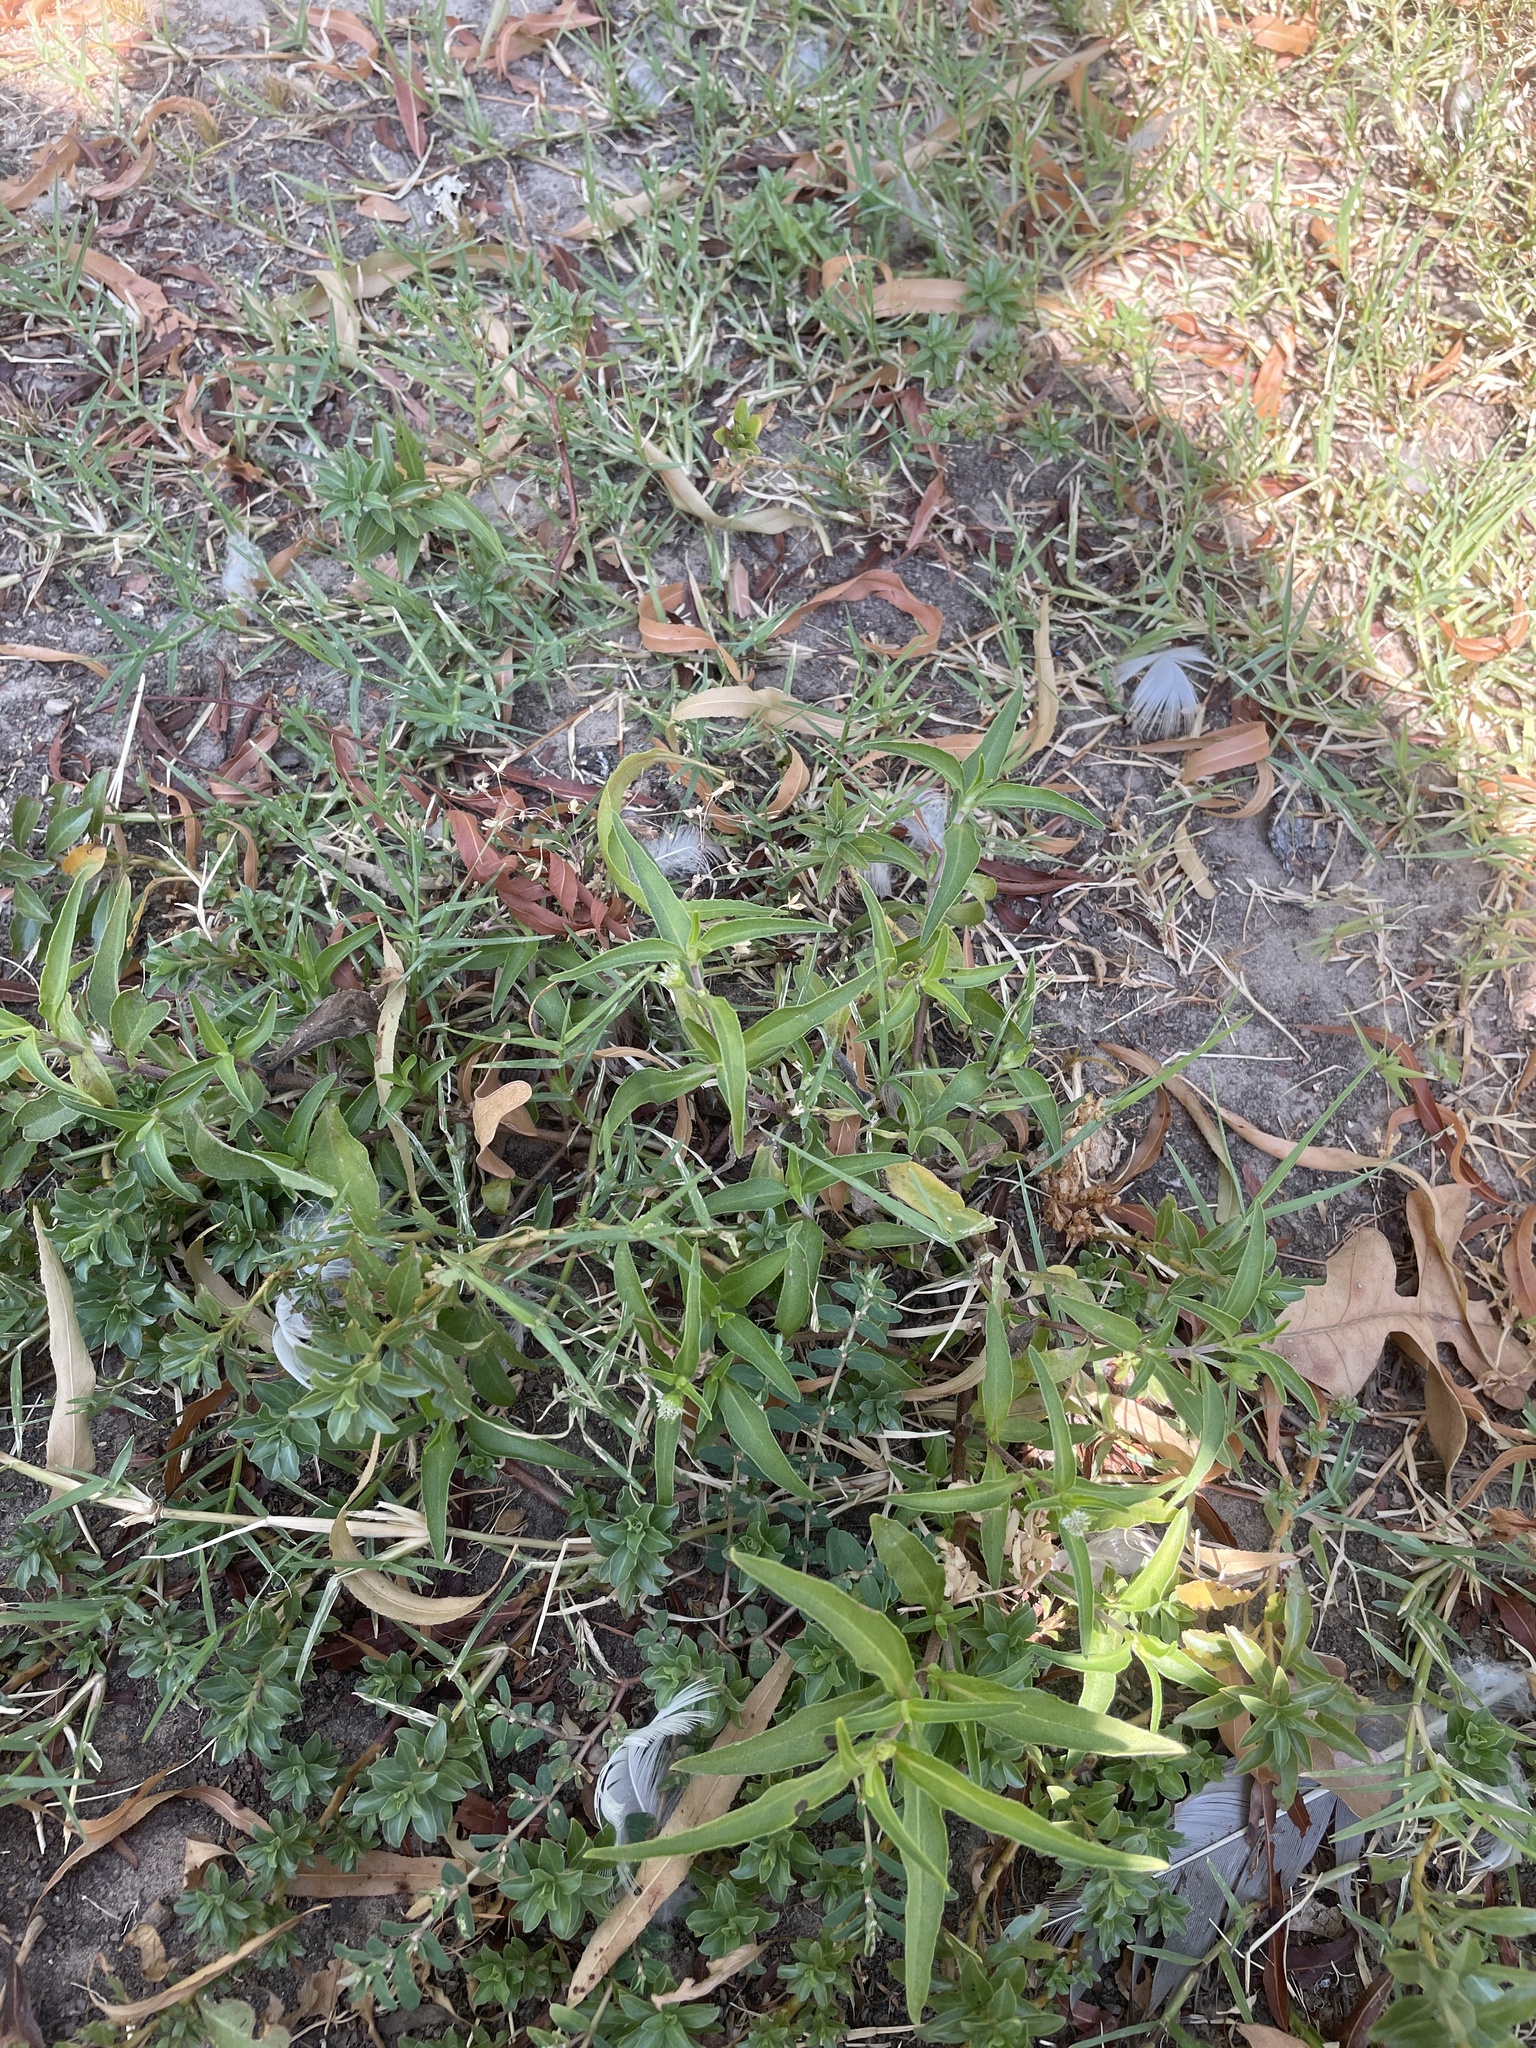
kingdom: Plantae
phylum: Tracheophyta
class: Magnoliopsida
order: Asterales
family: Asteraceae
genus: Eclipta
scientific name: Eclipta prostrata
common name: False daisy
